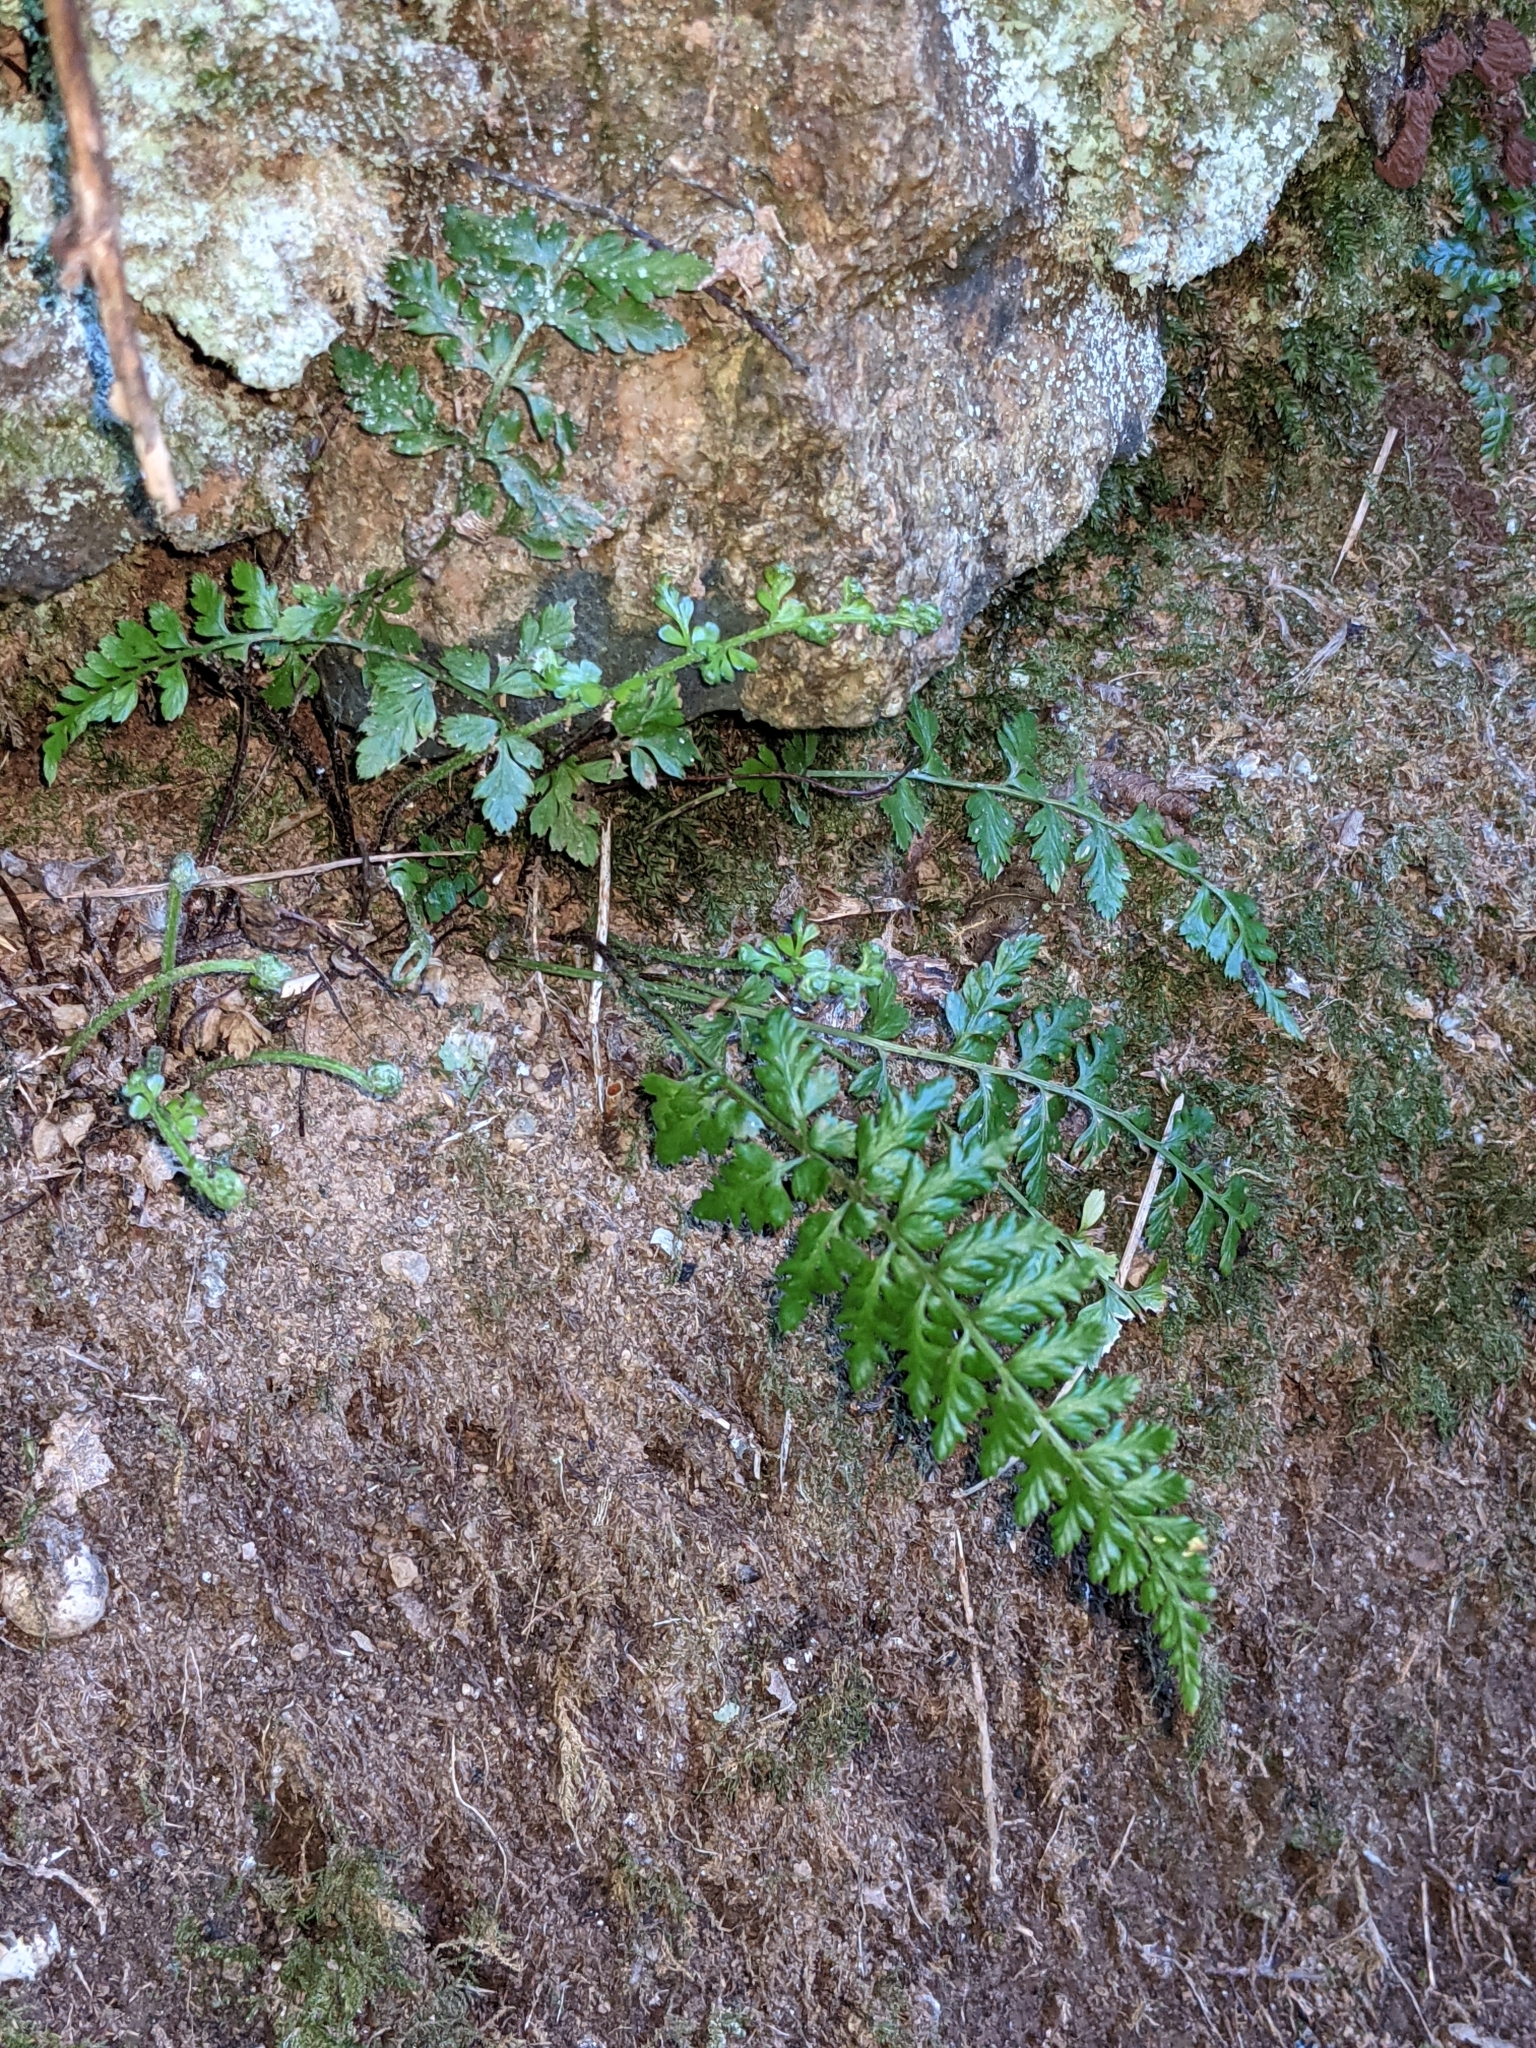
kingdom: Plantae
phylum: Tracheophyta
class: Polypodiopsida
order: Polypodiales
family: Aspleniaceae
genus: Asplenium
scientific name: Asplenium obovatum
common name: Lanceolate spleenwort
